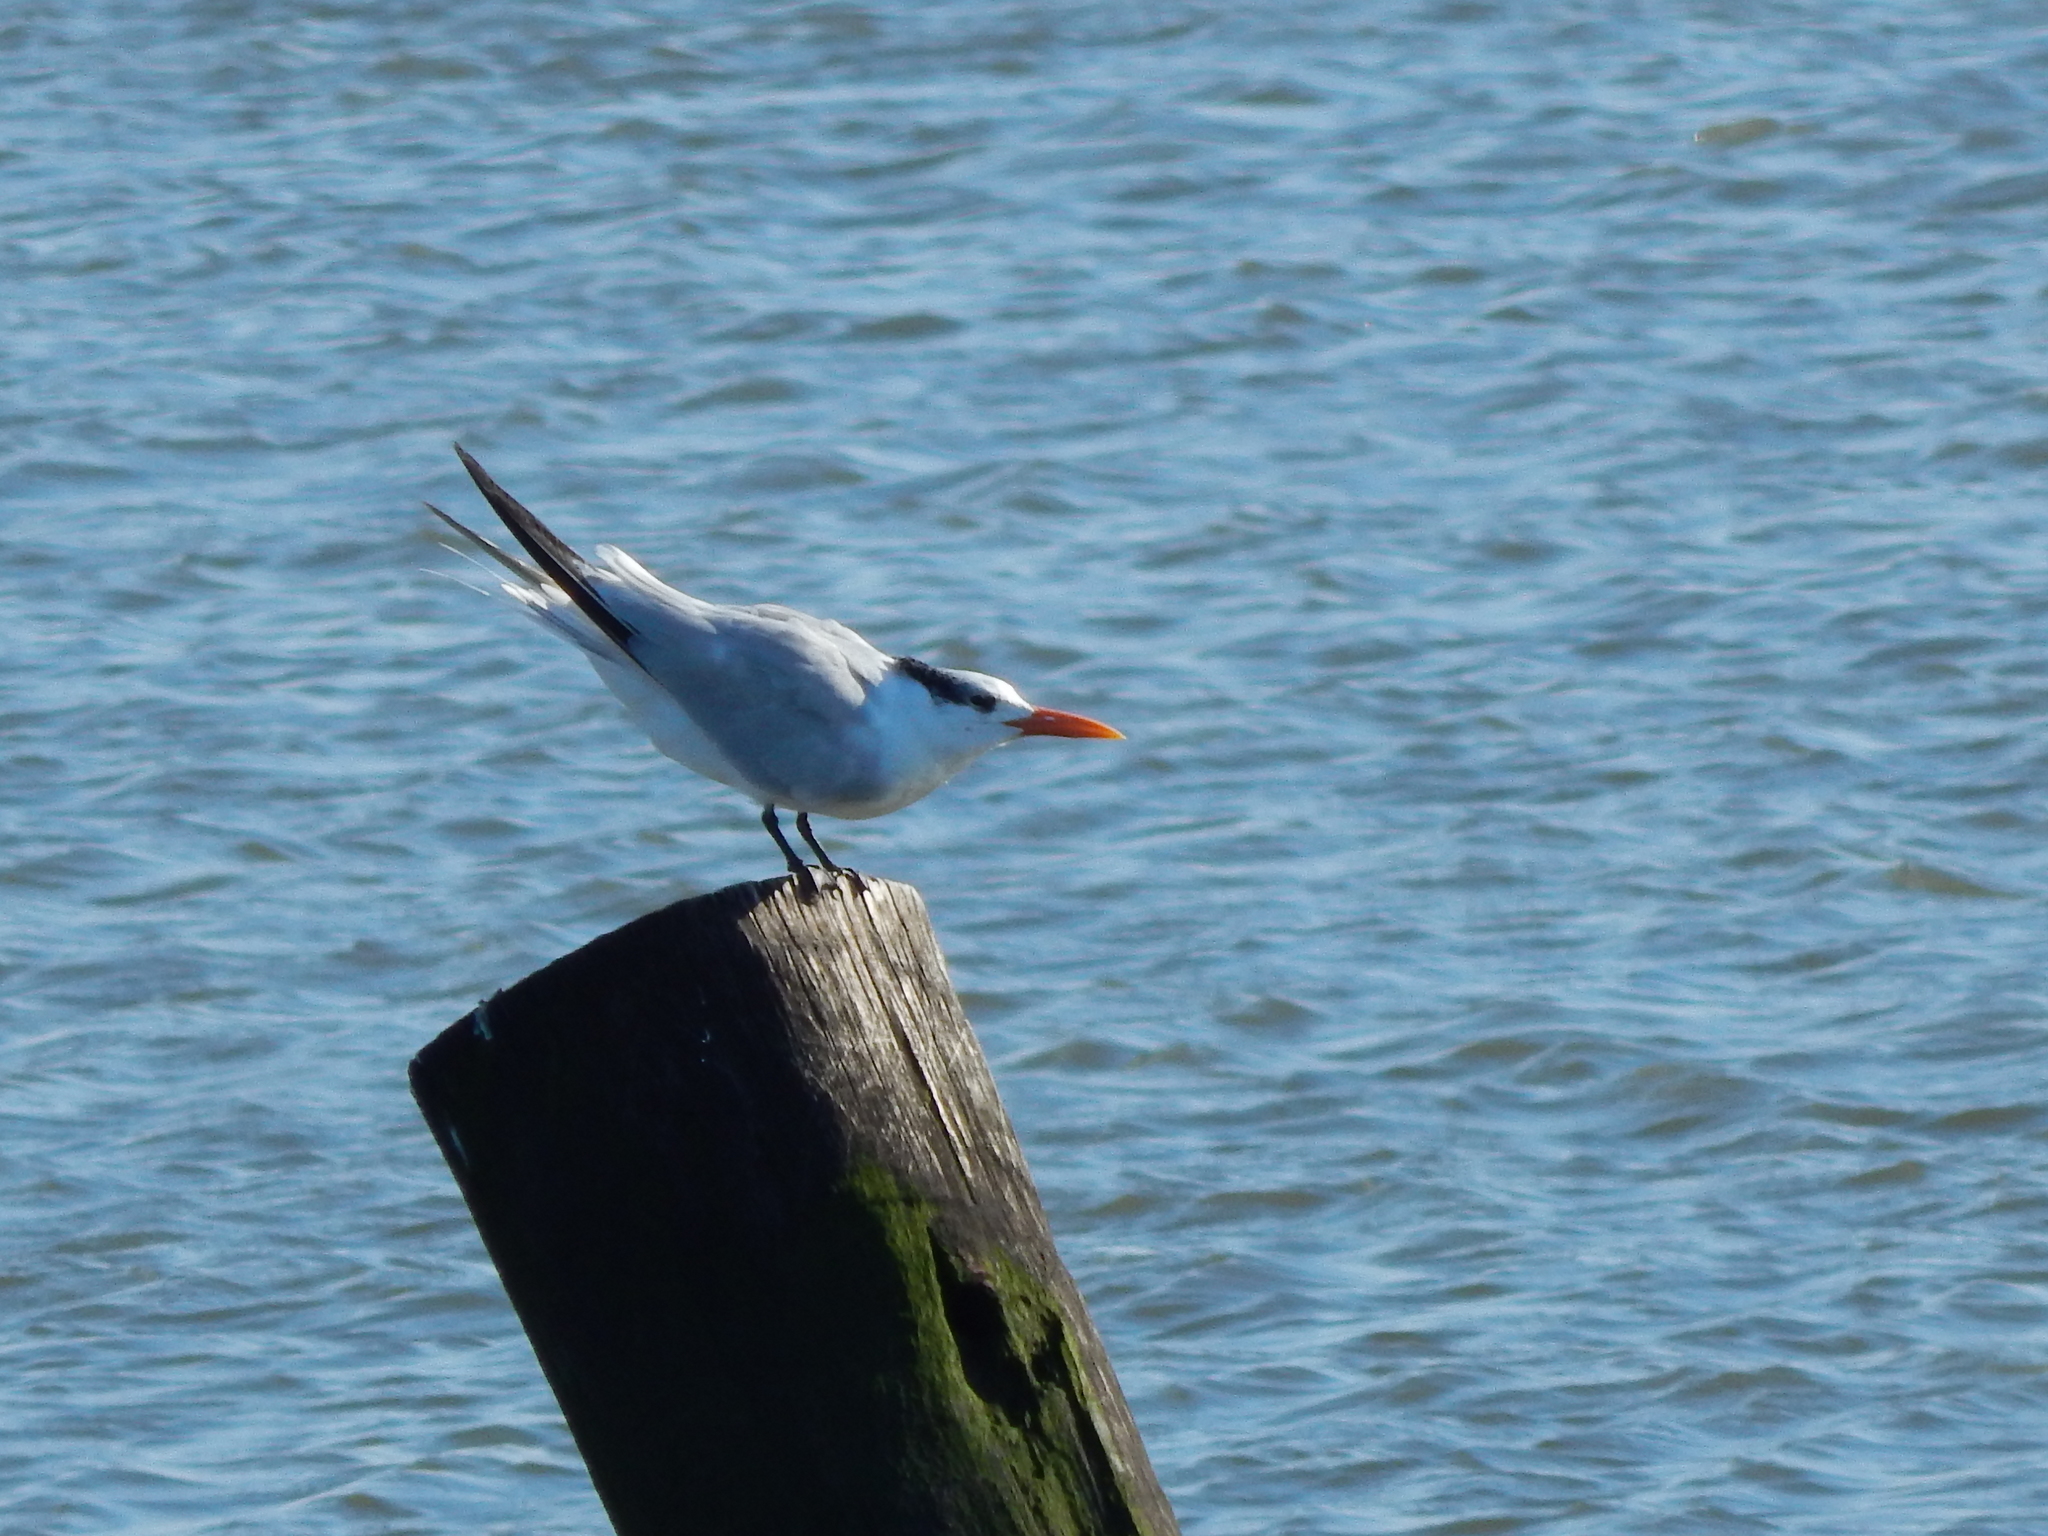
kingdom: Animalia
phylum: Chordata
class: Aves
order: Charadriiformes
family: Laridae
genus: Thalasseus
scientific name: Thalasseus maximus
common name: Royal tern
